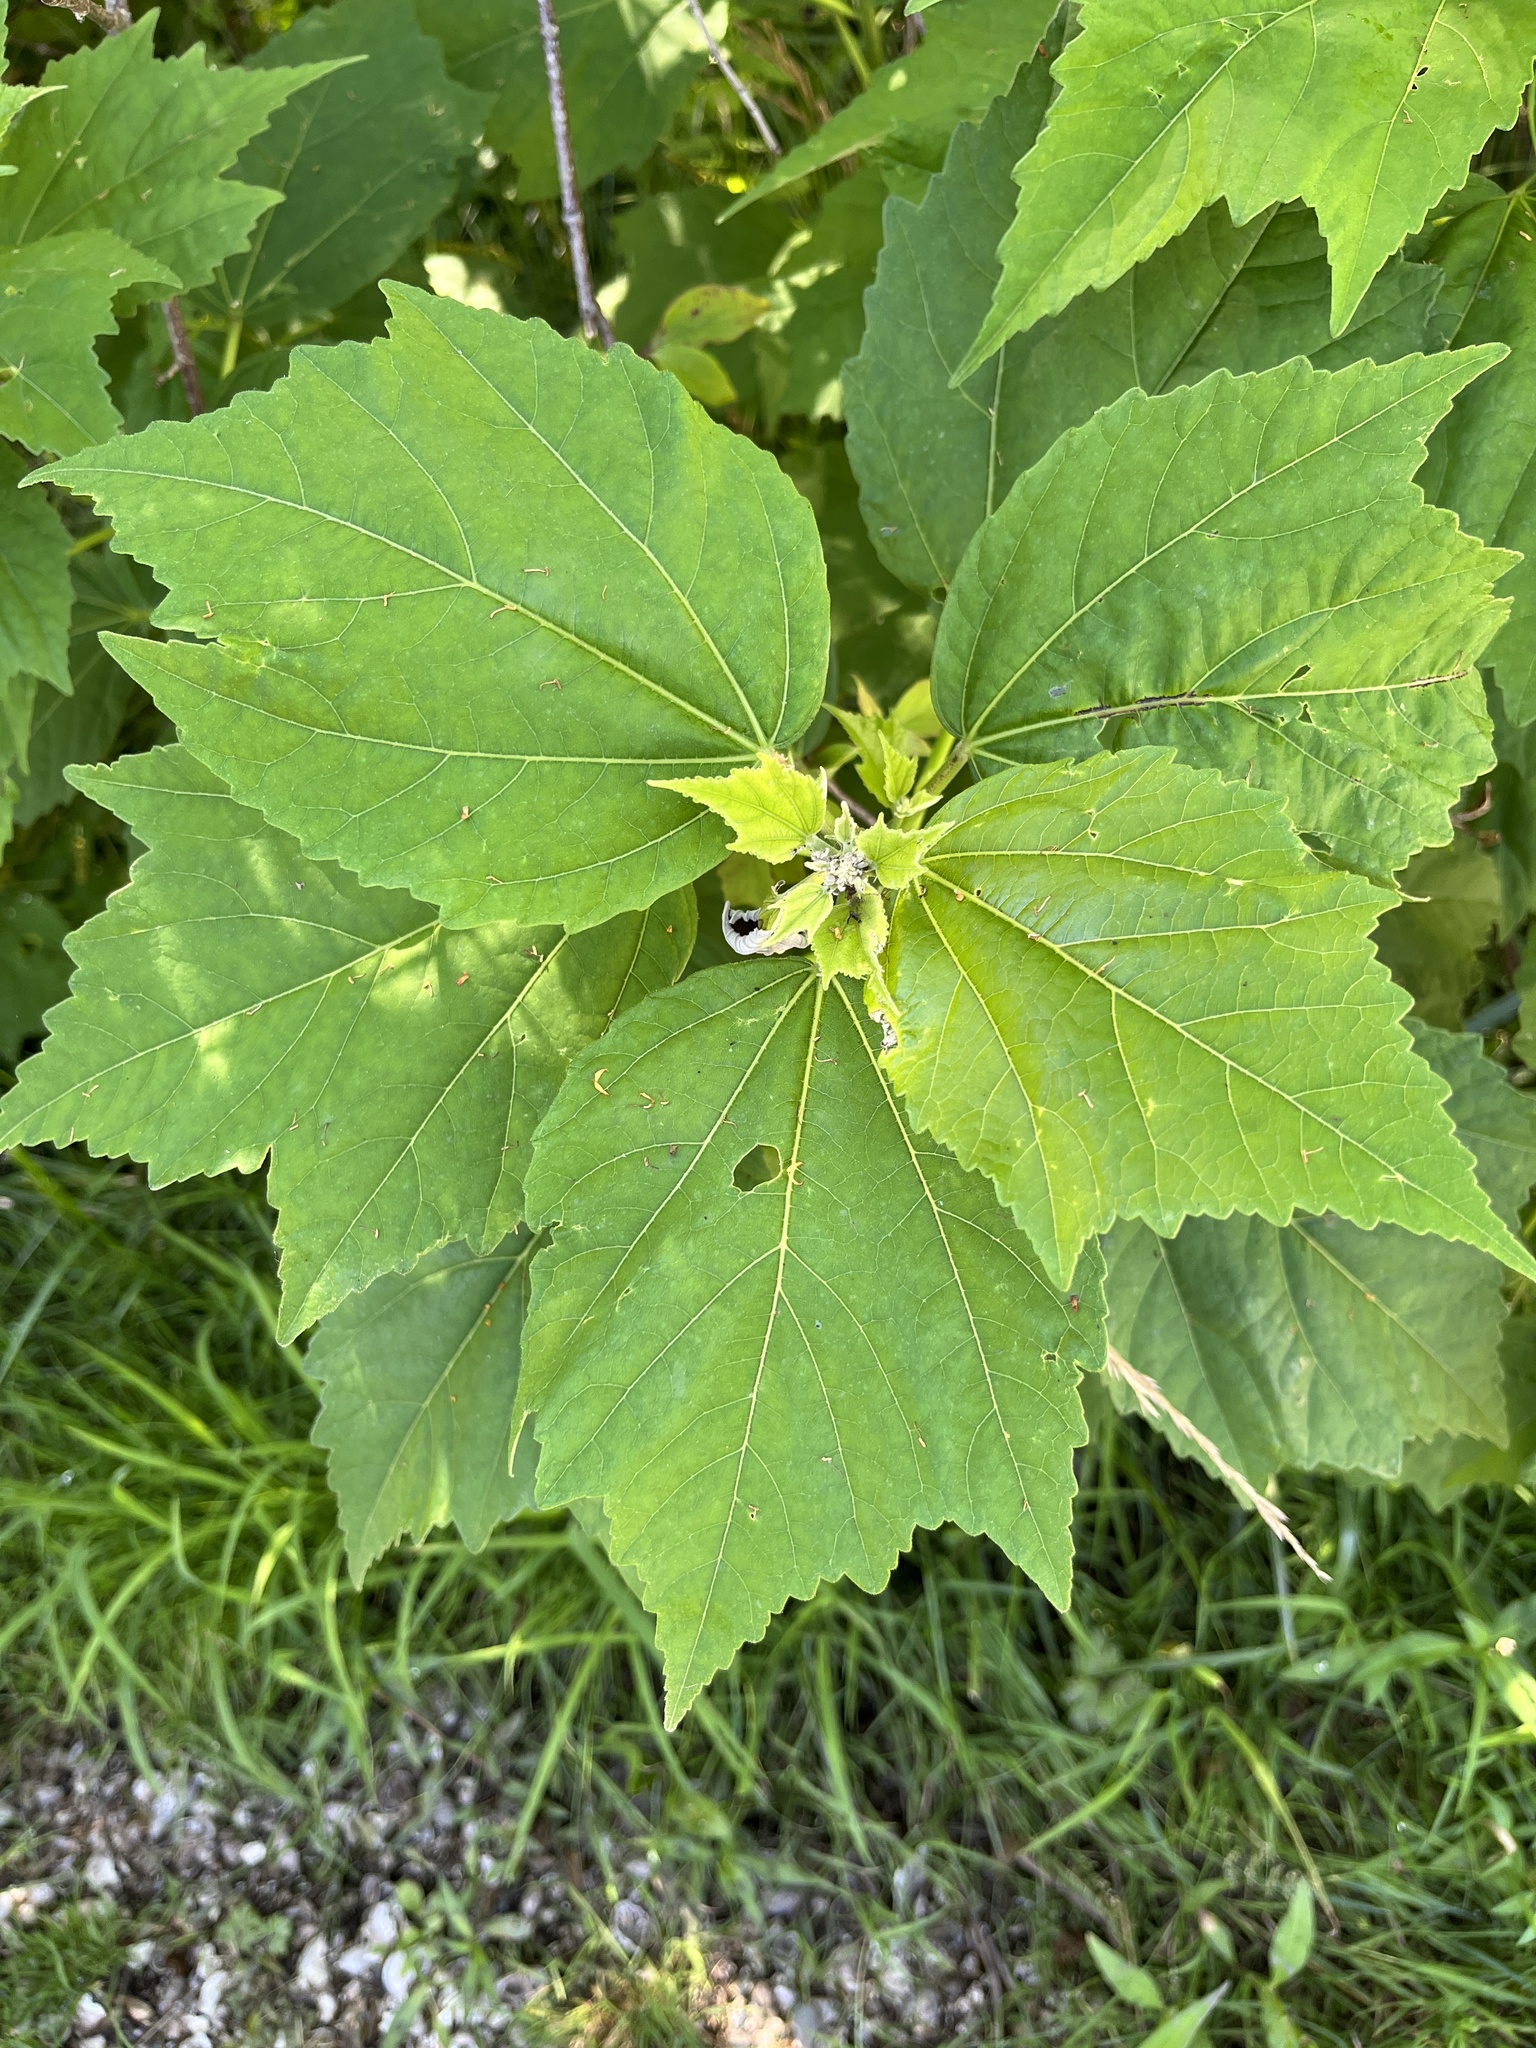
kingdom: Plantae
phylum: Tracheophyta
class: Magnoliopsida
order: Malvales
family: Malvaceae
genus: Hibiscus
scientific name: Hibiscus moscheutos
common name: Common rose-mallow
